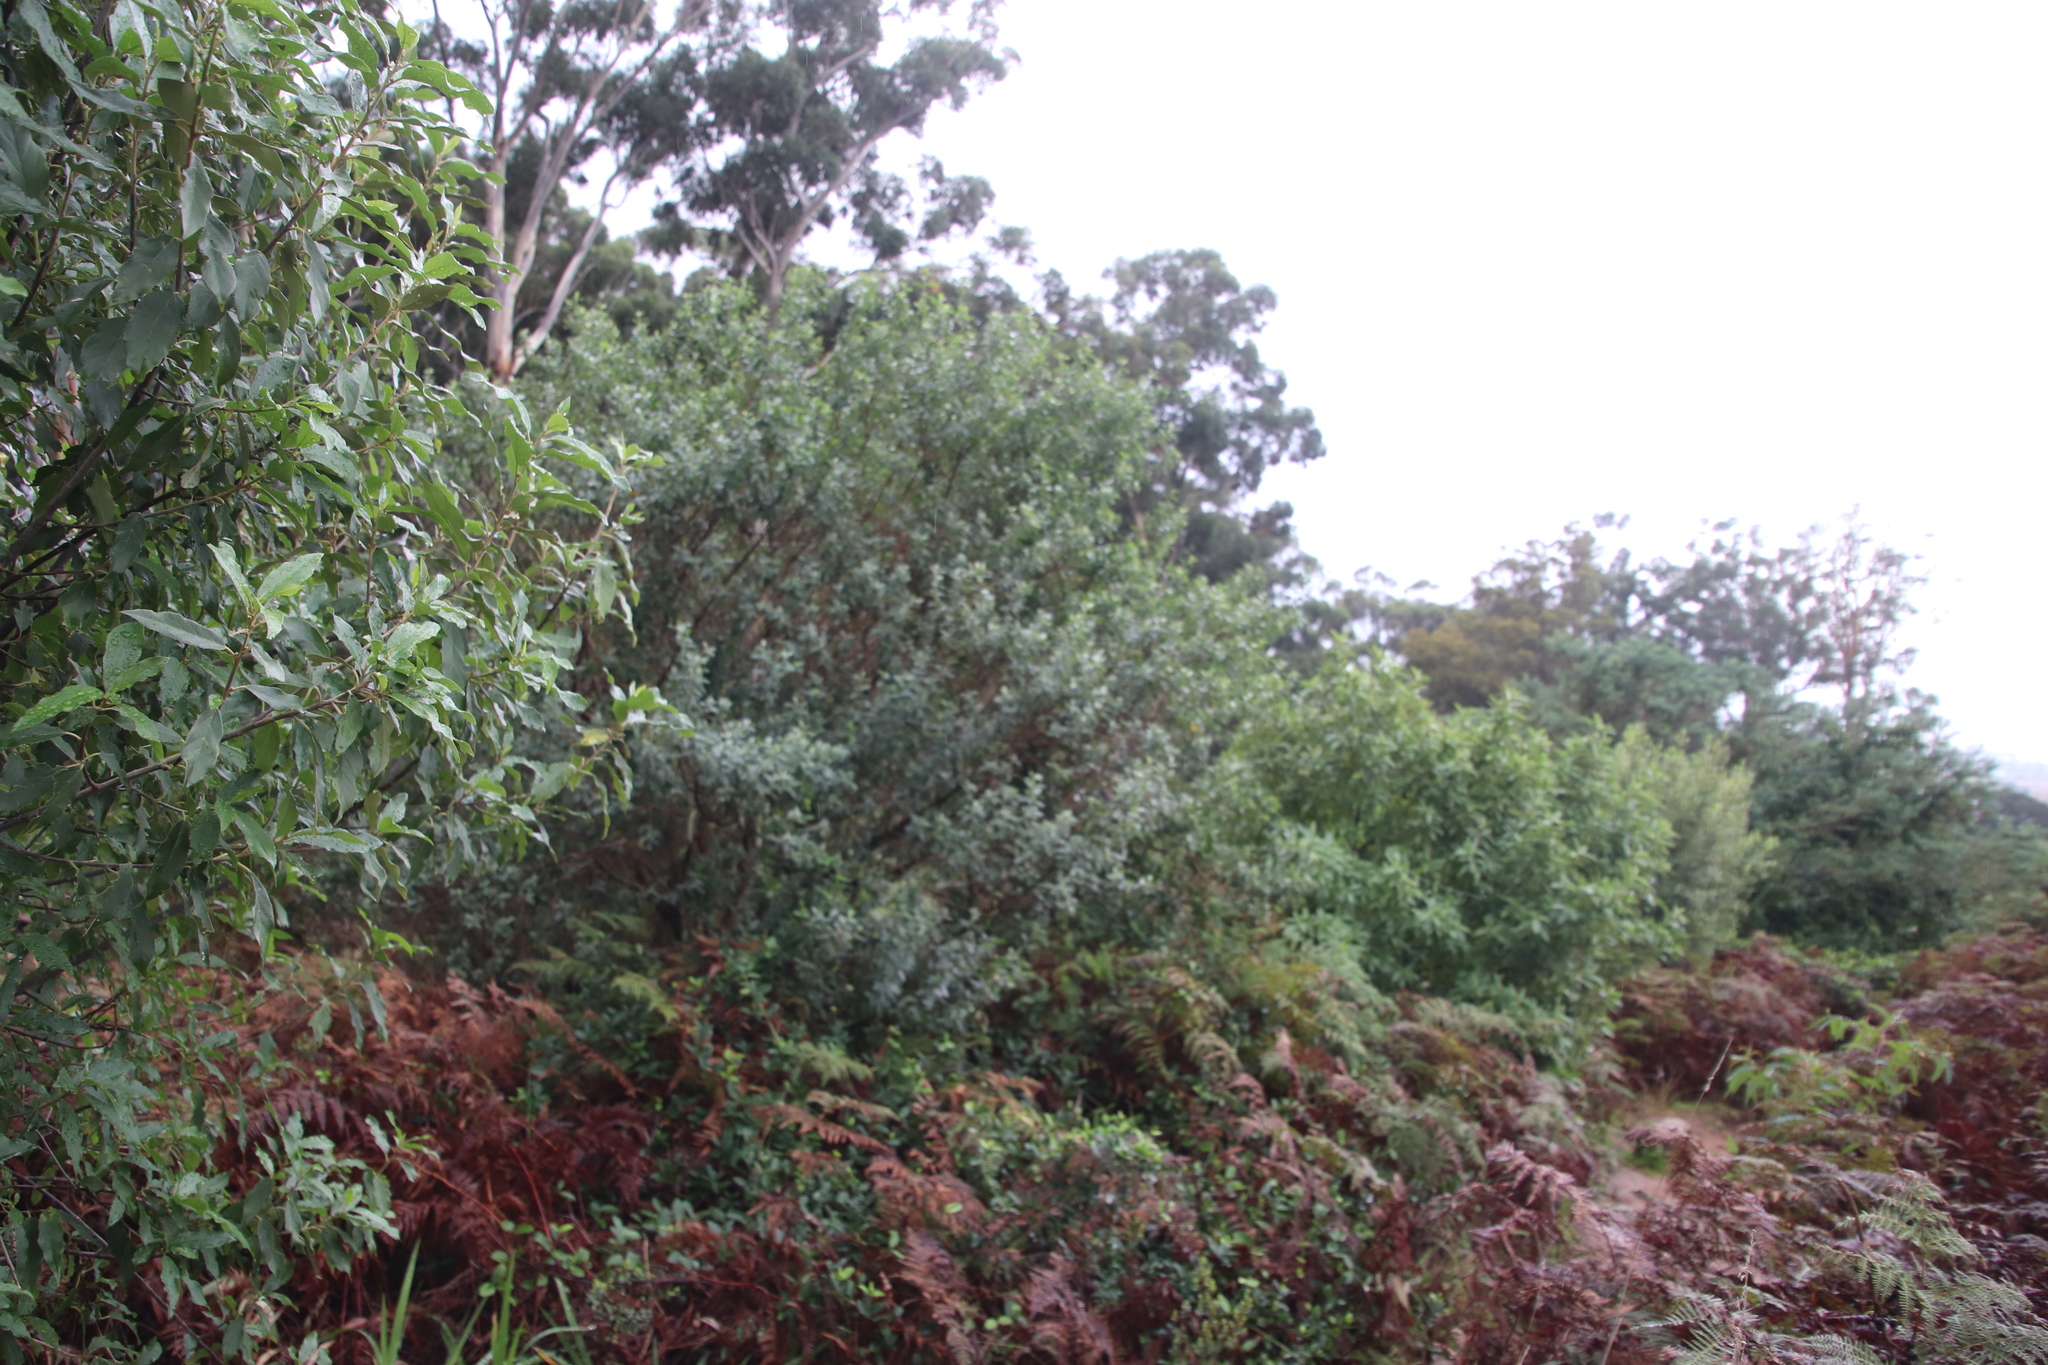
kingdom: Plantae
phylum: Tracheophyta
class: Magnoliopsida
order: Fabales
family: Fabaceae
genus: Podalyria
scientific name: Podalyria calyptrata
